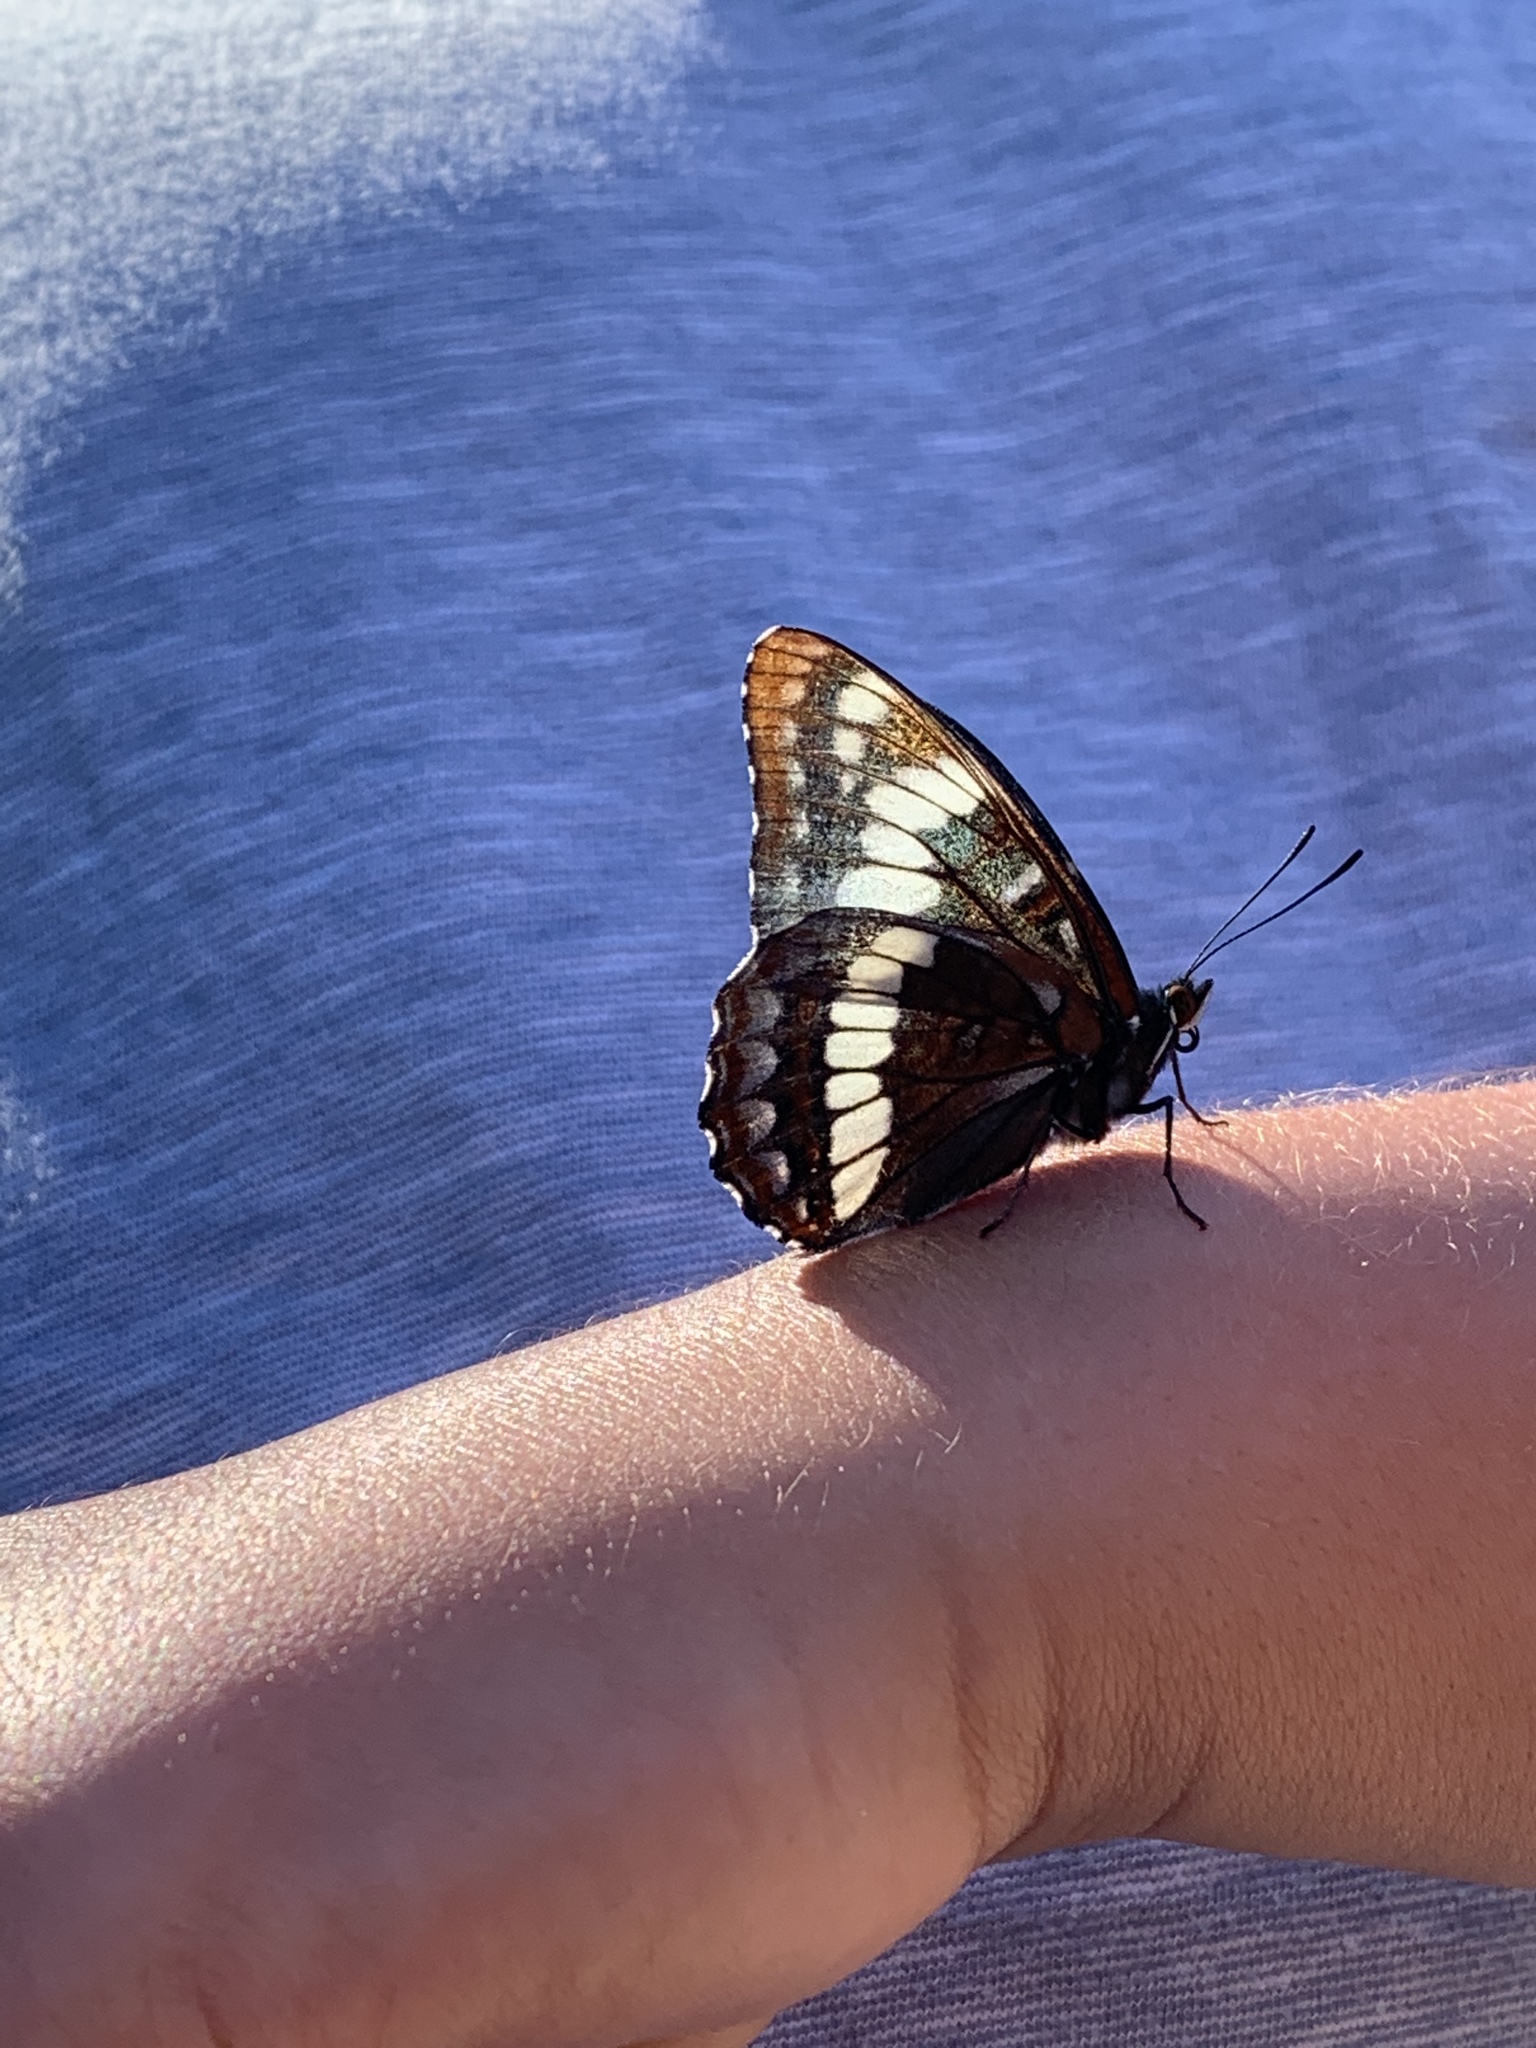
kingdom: Animalia
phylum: Arthropoda
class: Insecta
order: Lepidoptera
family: Nymphalidae
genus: Limenitis
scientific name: Limenitis lorquini
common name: Lorquin's admiral
